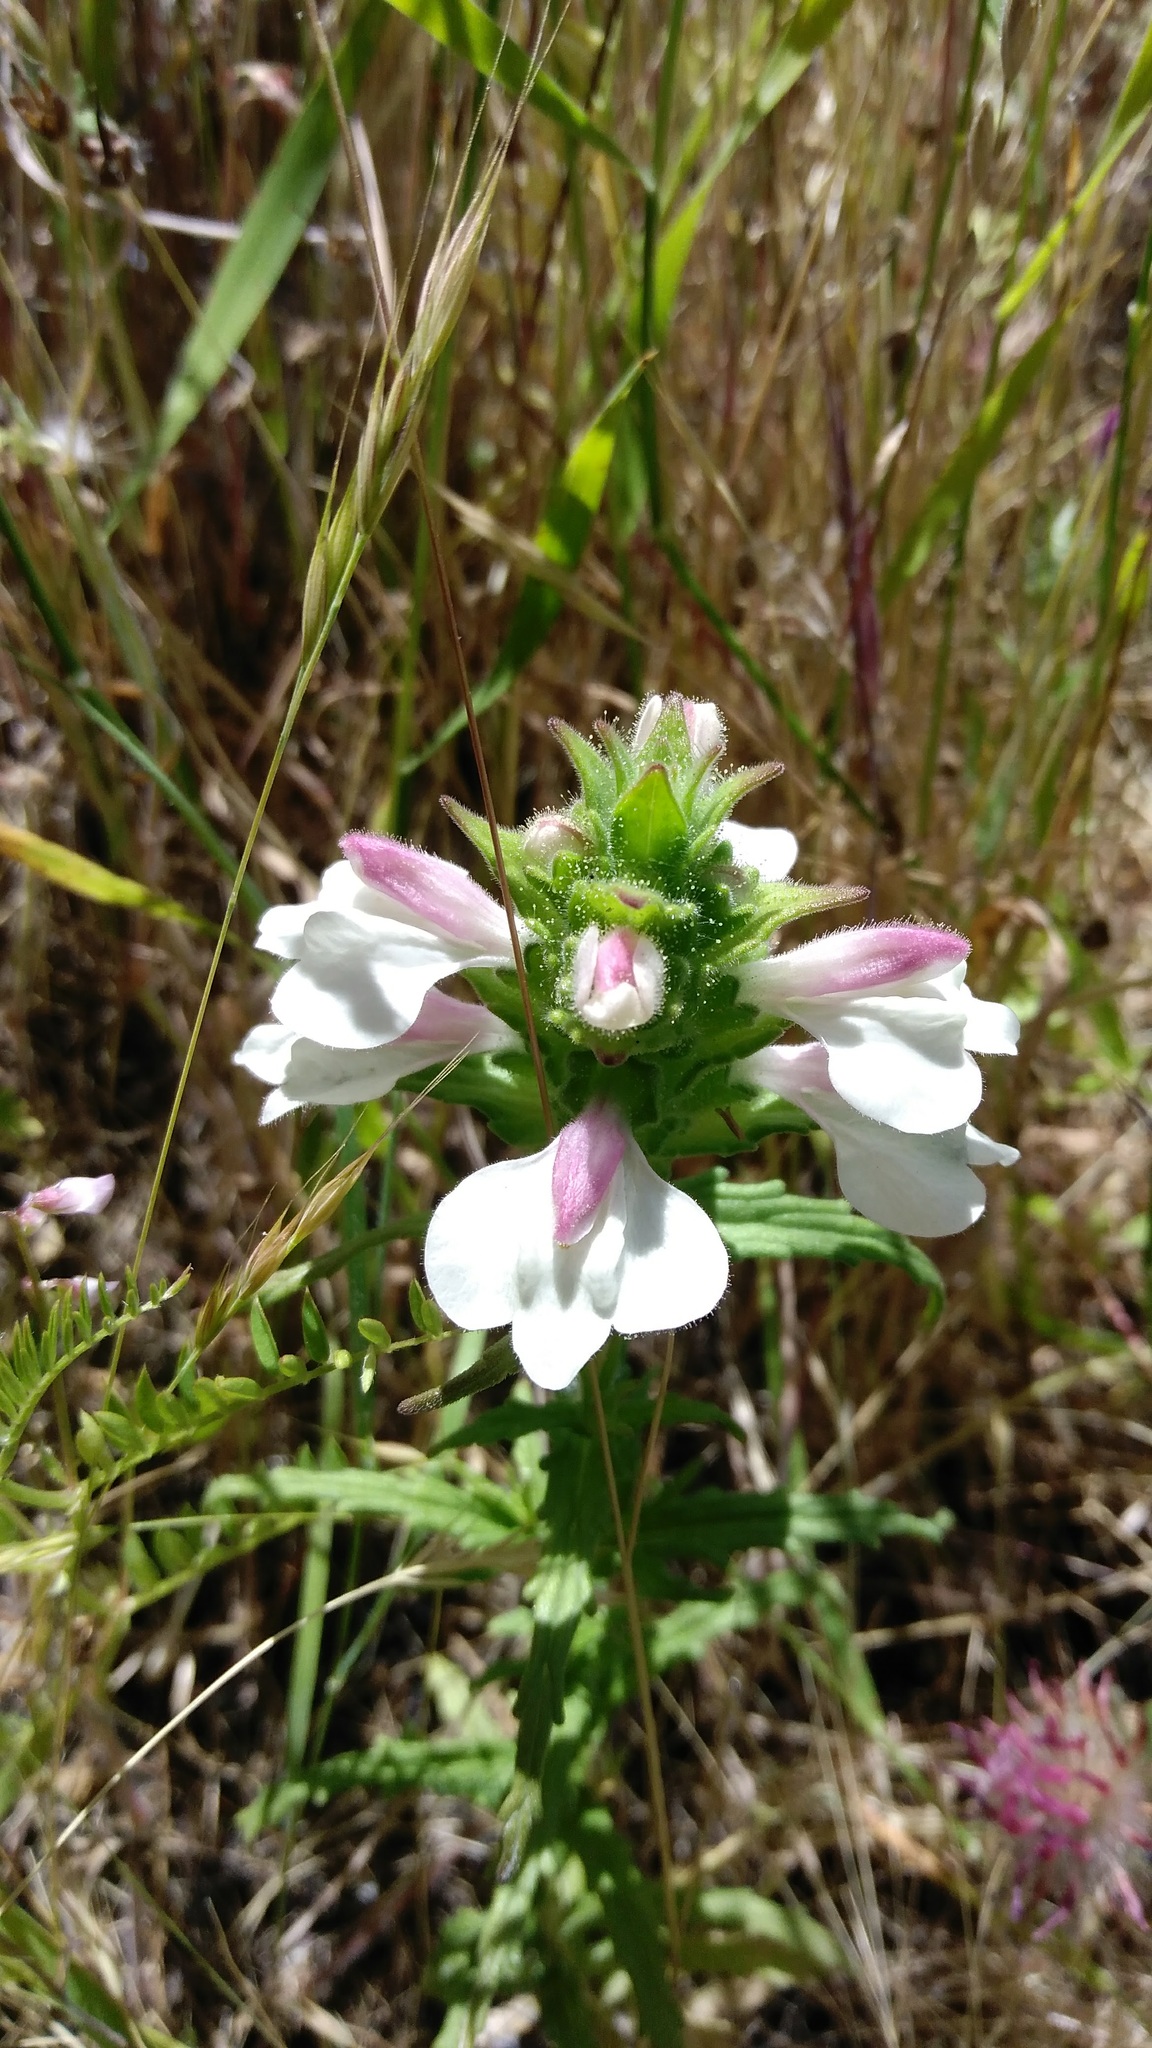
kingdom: Plantae
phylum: Tracheophyta
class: Magnoliopsida
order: Lamiales
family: Orobanchaceae
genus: Bellardia
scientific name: Bellardia trixago
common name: Mediterranean lineseed
